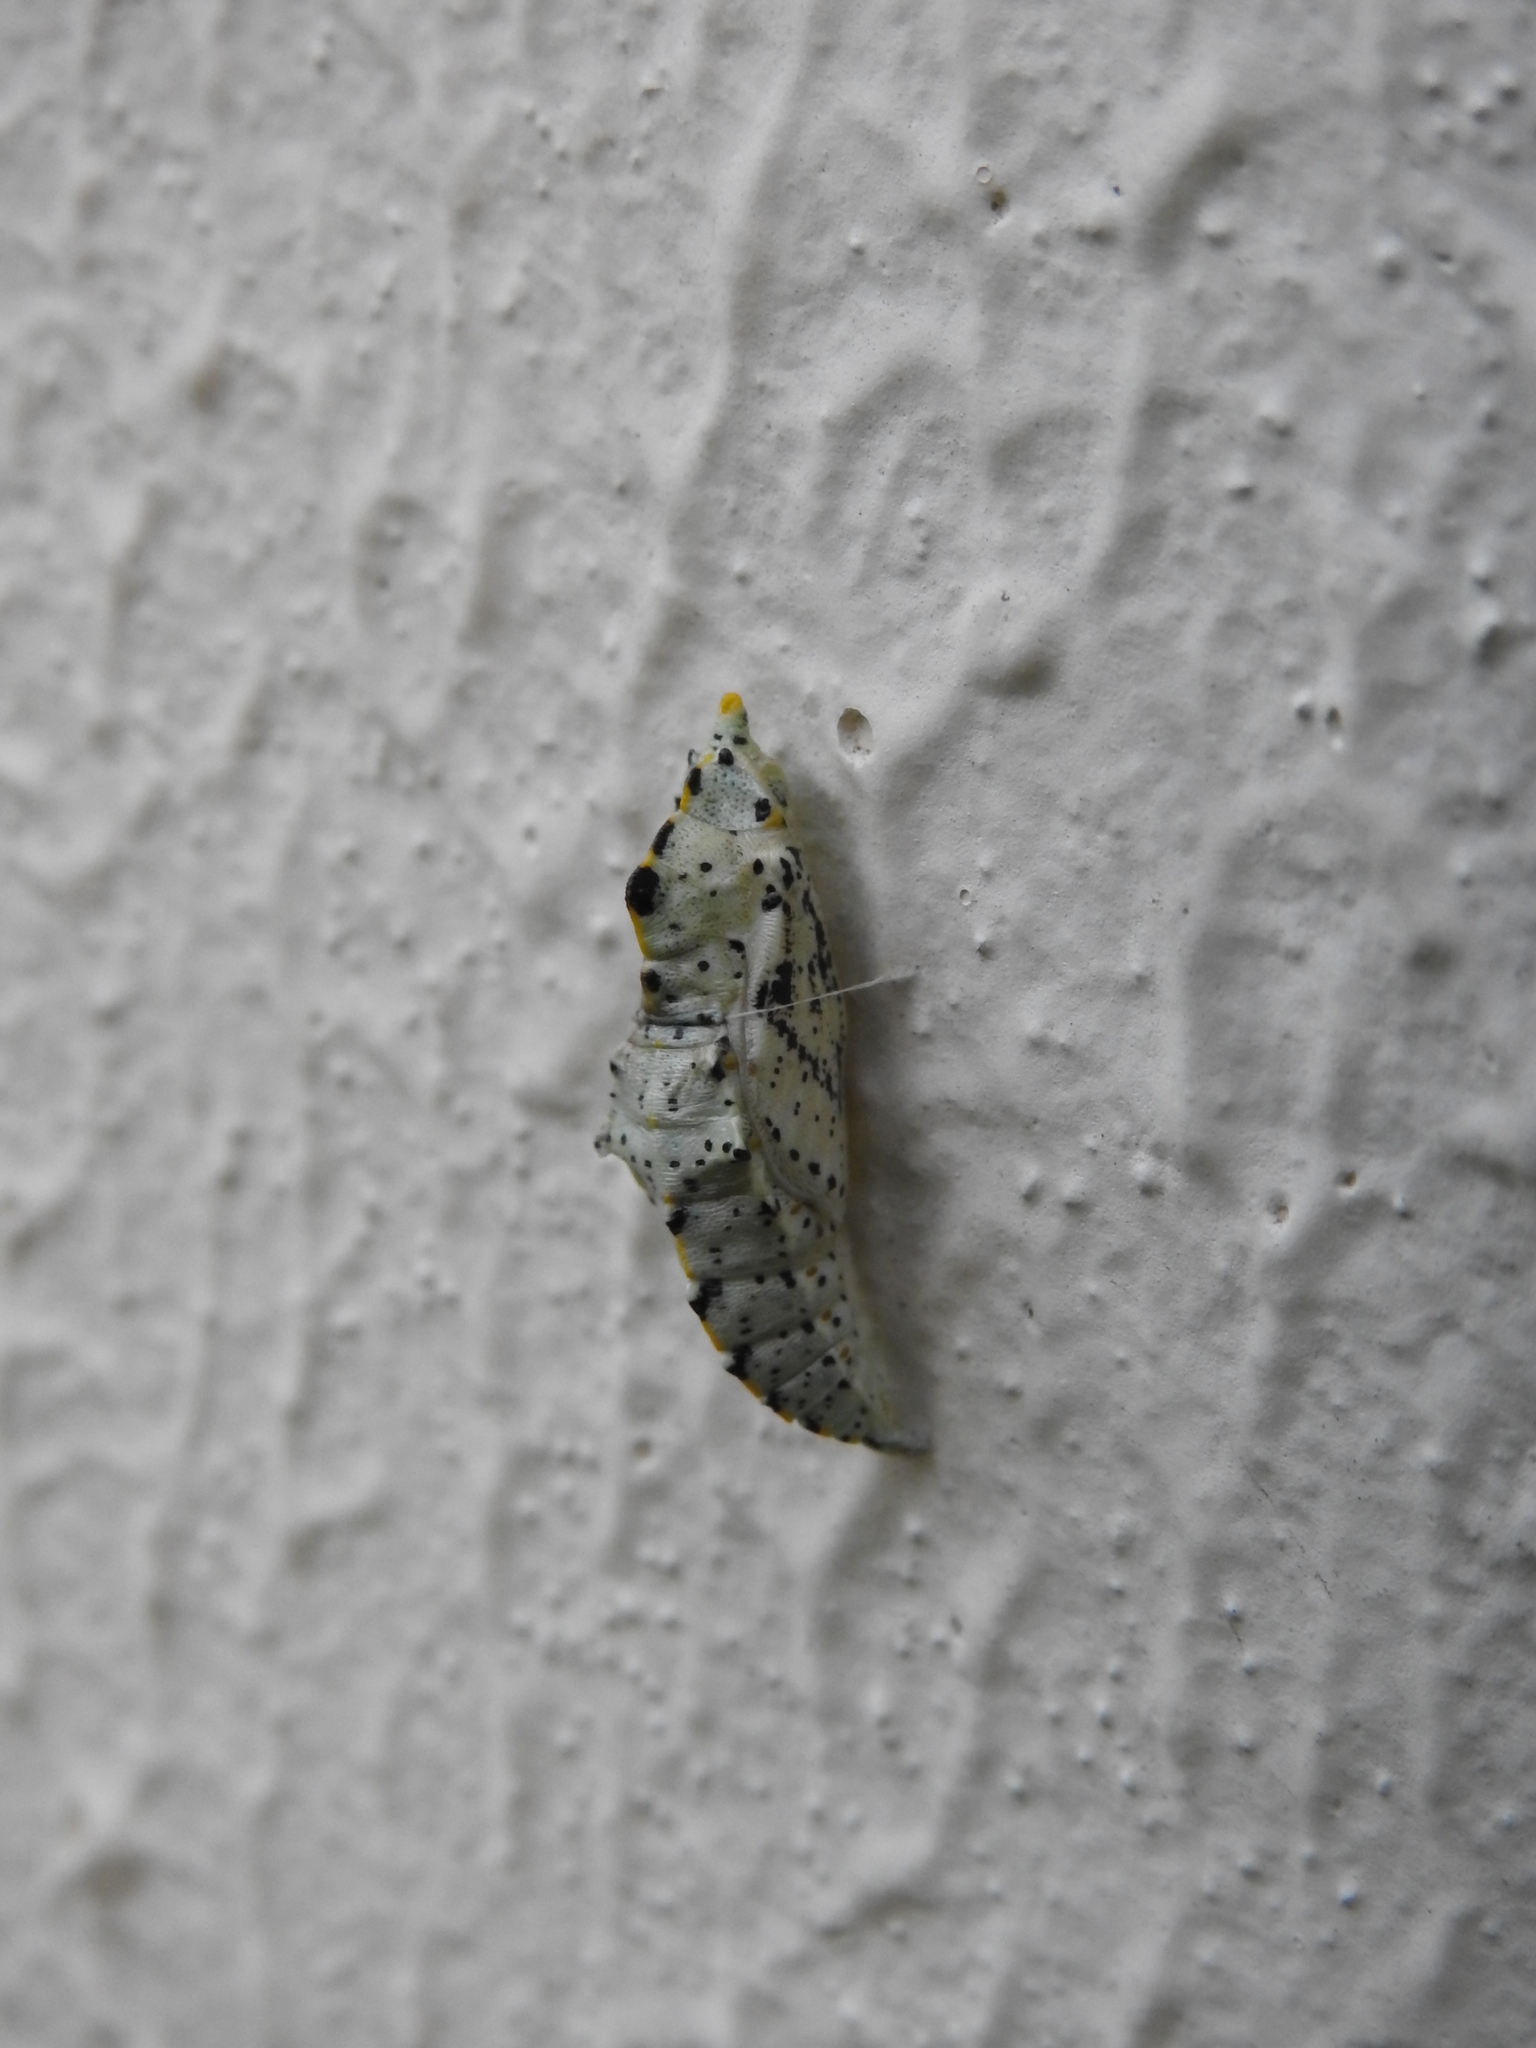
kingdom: Animalia
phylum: Arthropoda
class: Insecta
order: Lepidoptera
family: Pieridae
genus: Pieris
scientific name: Pieris brassicae
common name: Large white
